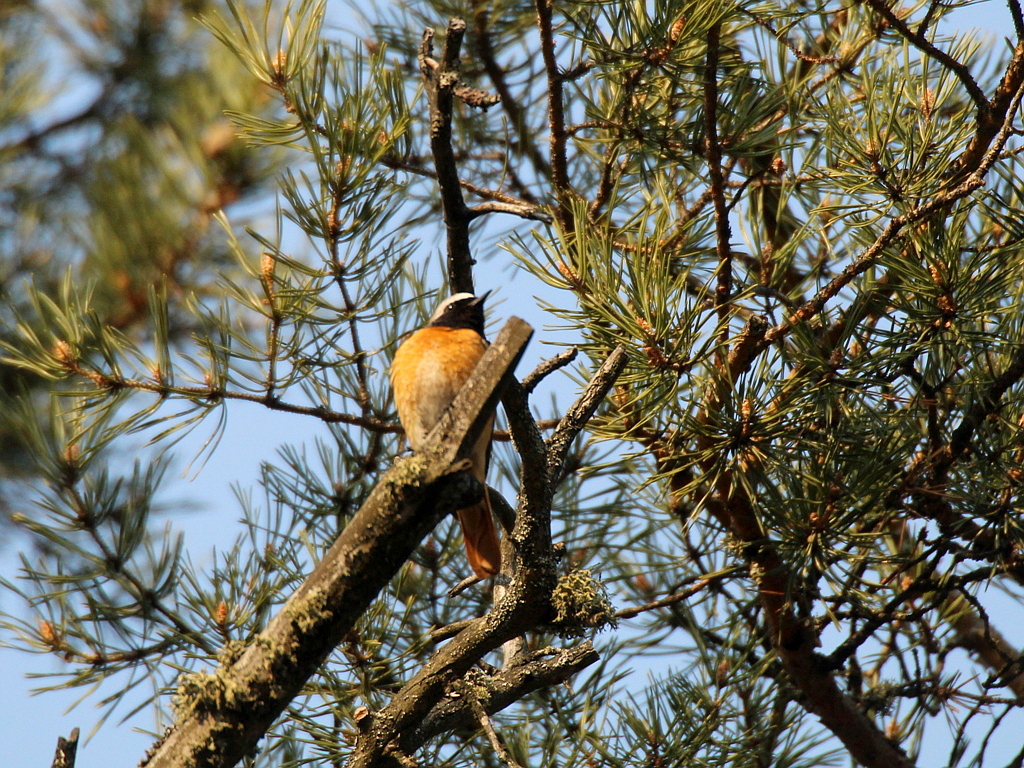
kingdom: Animalia
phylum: Chordata
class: Aves
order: Passeriformes
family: Muscicapidae
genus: Phoenicurus
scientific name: Phoenicurus phoenicurus
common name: Common redstart
